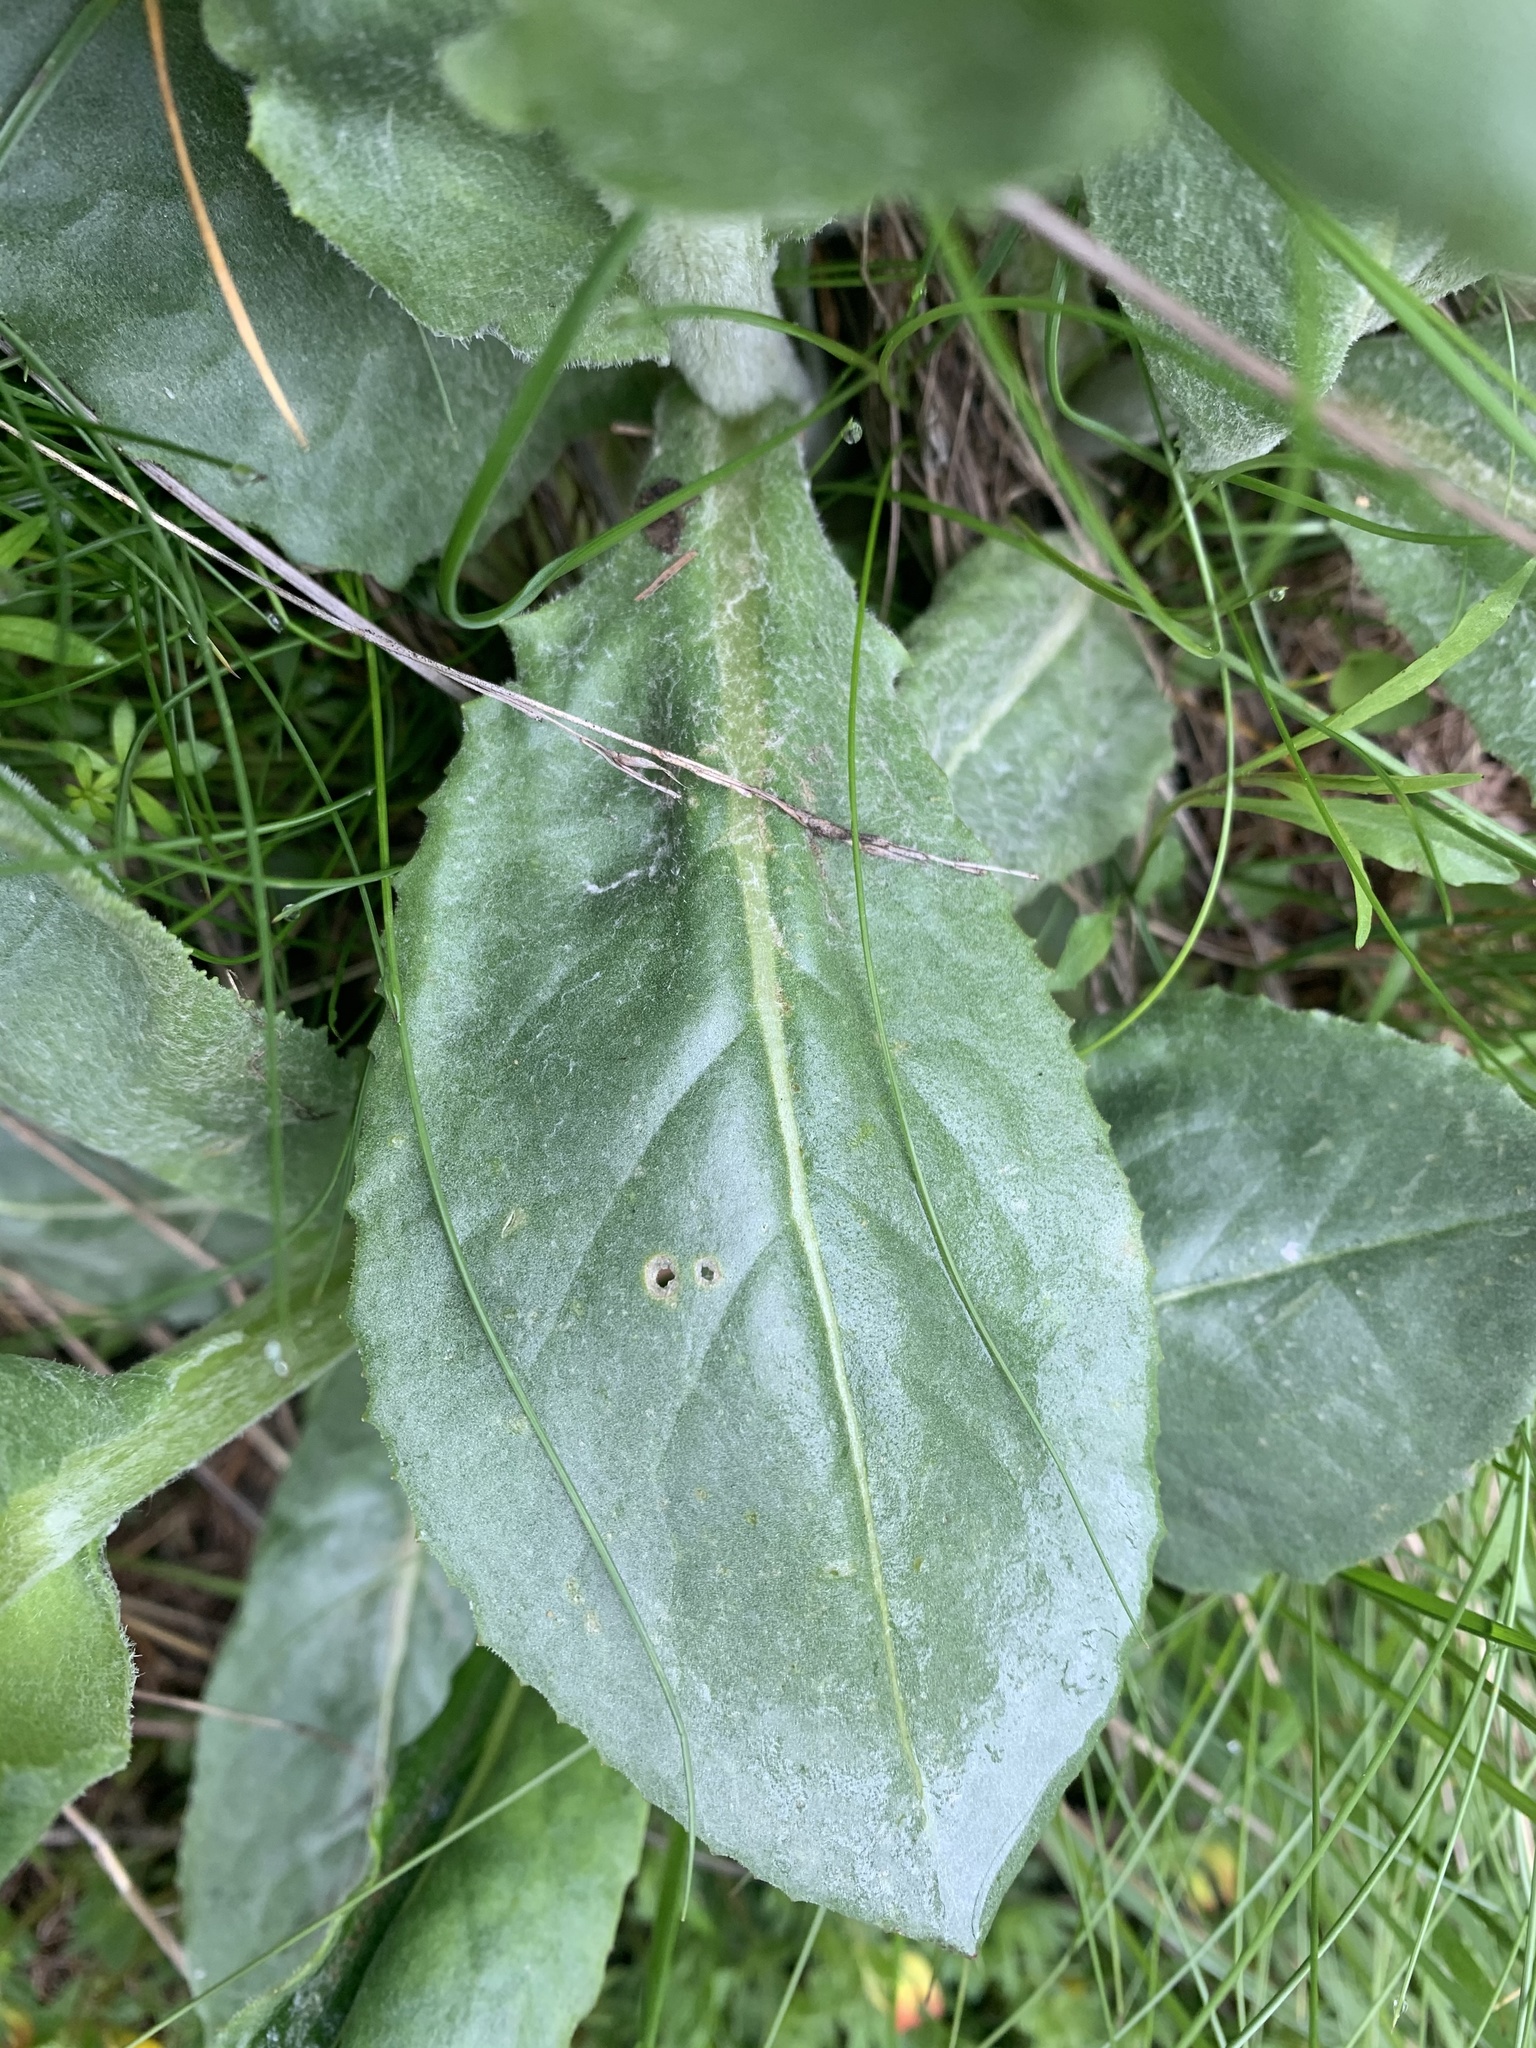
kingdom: Plantae
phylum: Tracheophyta
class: Magnoliopsida
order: Asterales
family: Asteraceae
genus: Senecio
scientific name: Senecio doronicum
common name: Chamois ragwort
